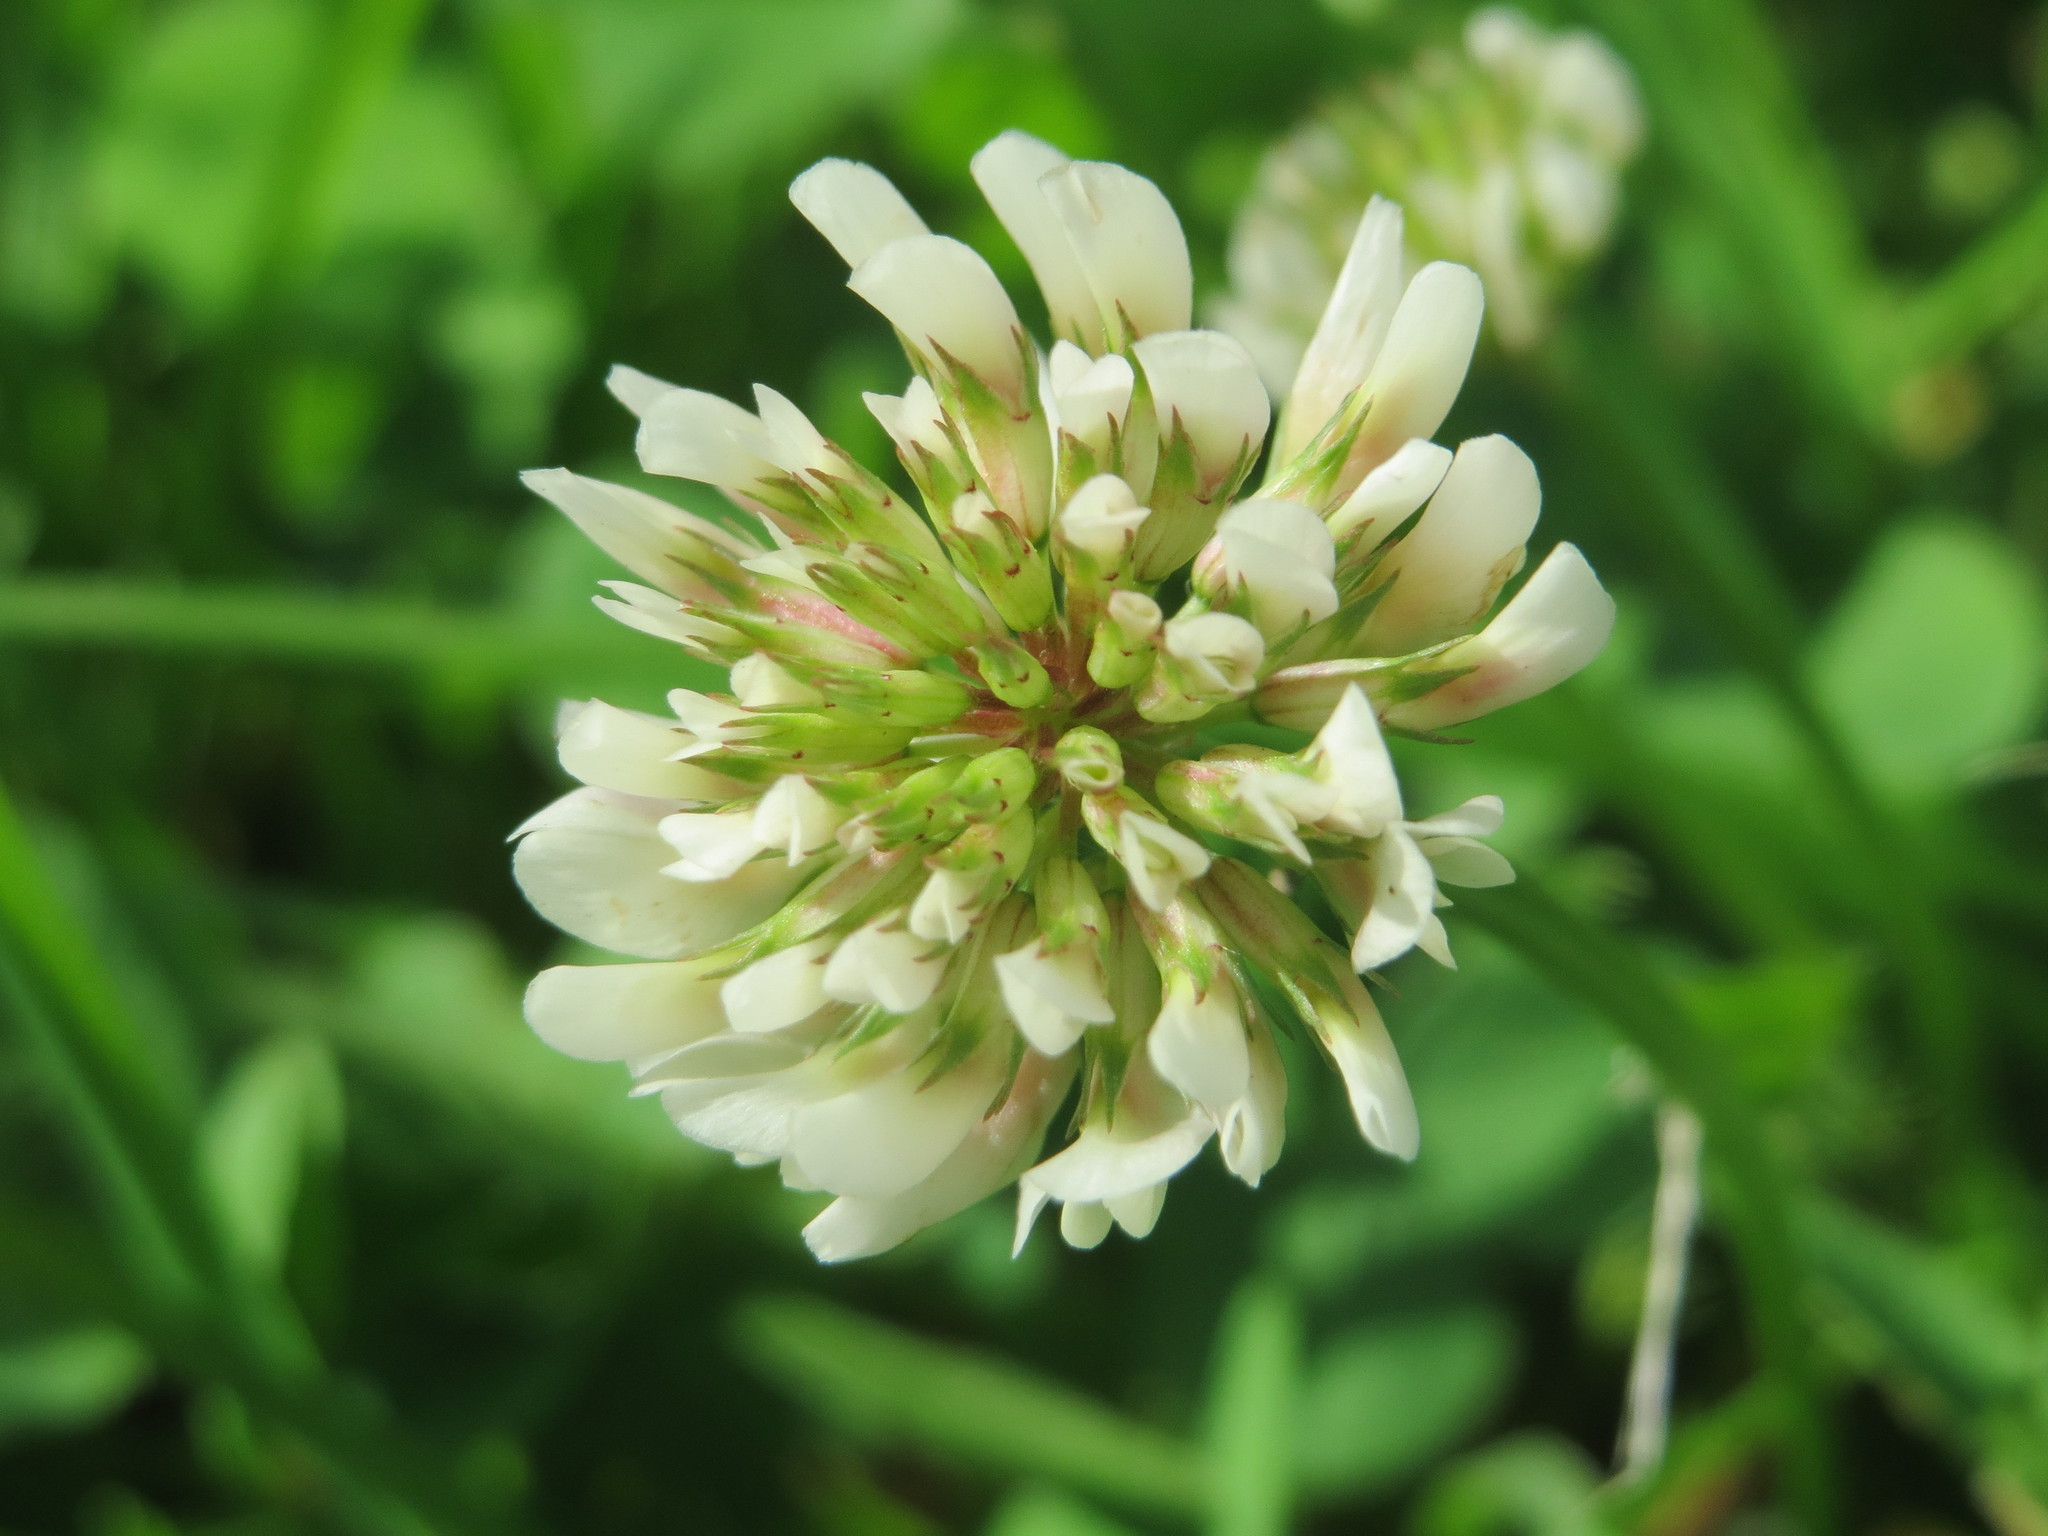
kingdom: Plantae
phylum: Tracheophyta
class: Magnoliopsida
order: Fabales
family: Fabaceae
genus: Trifolium
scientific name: Trifolium repens
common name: White clover
